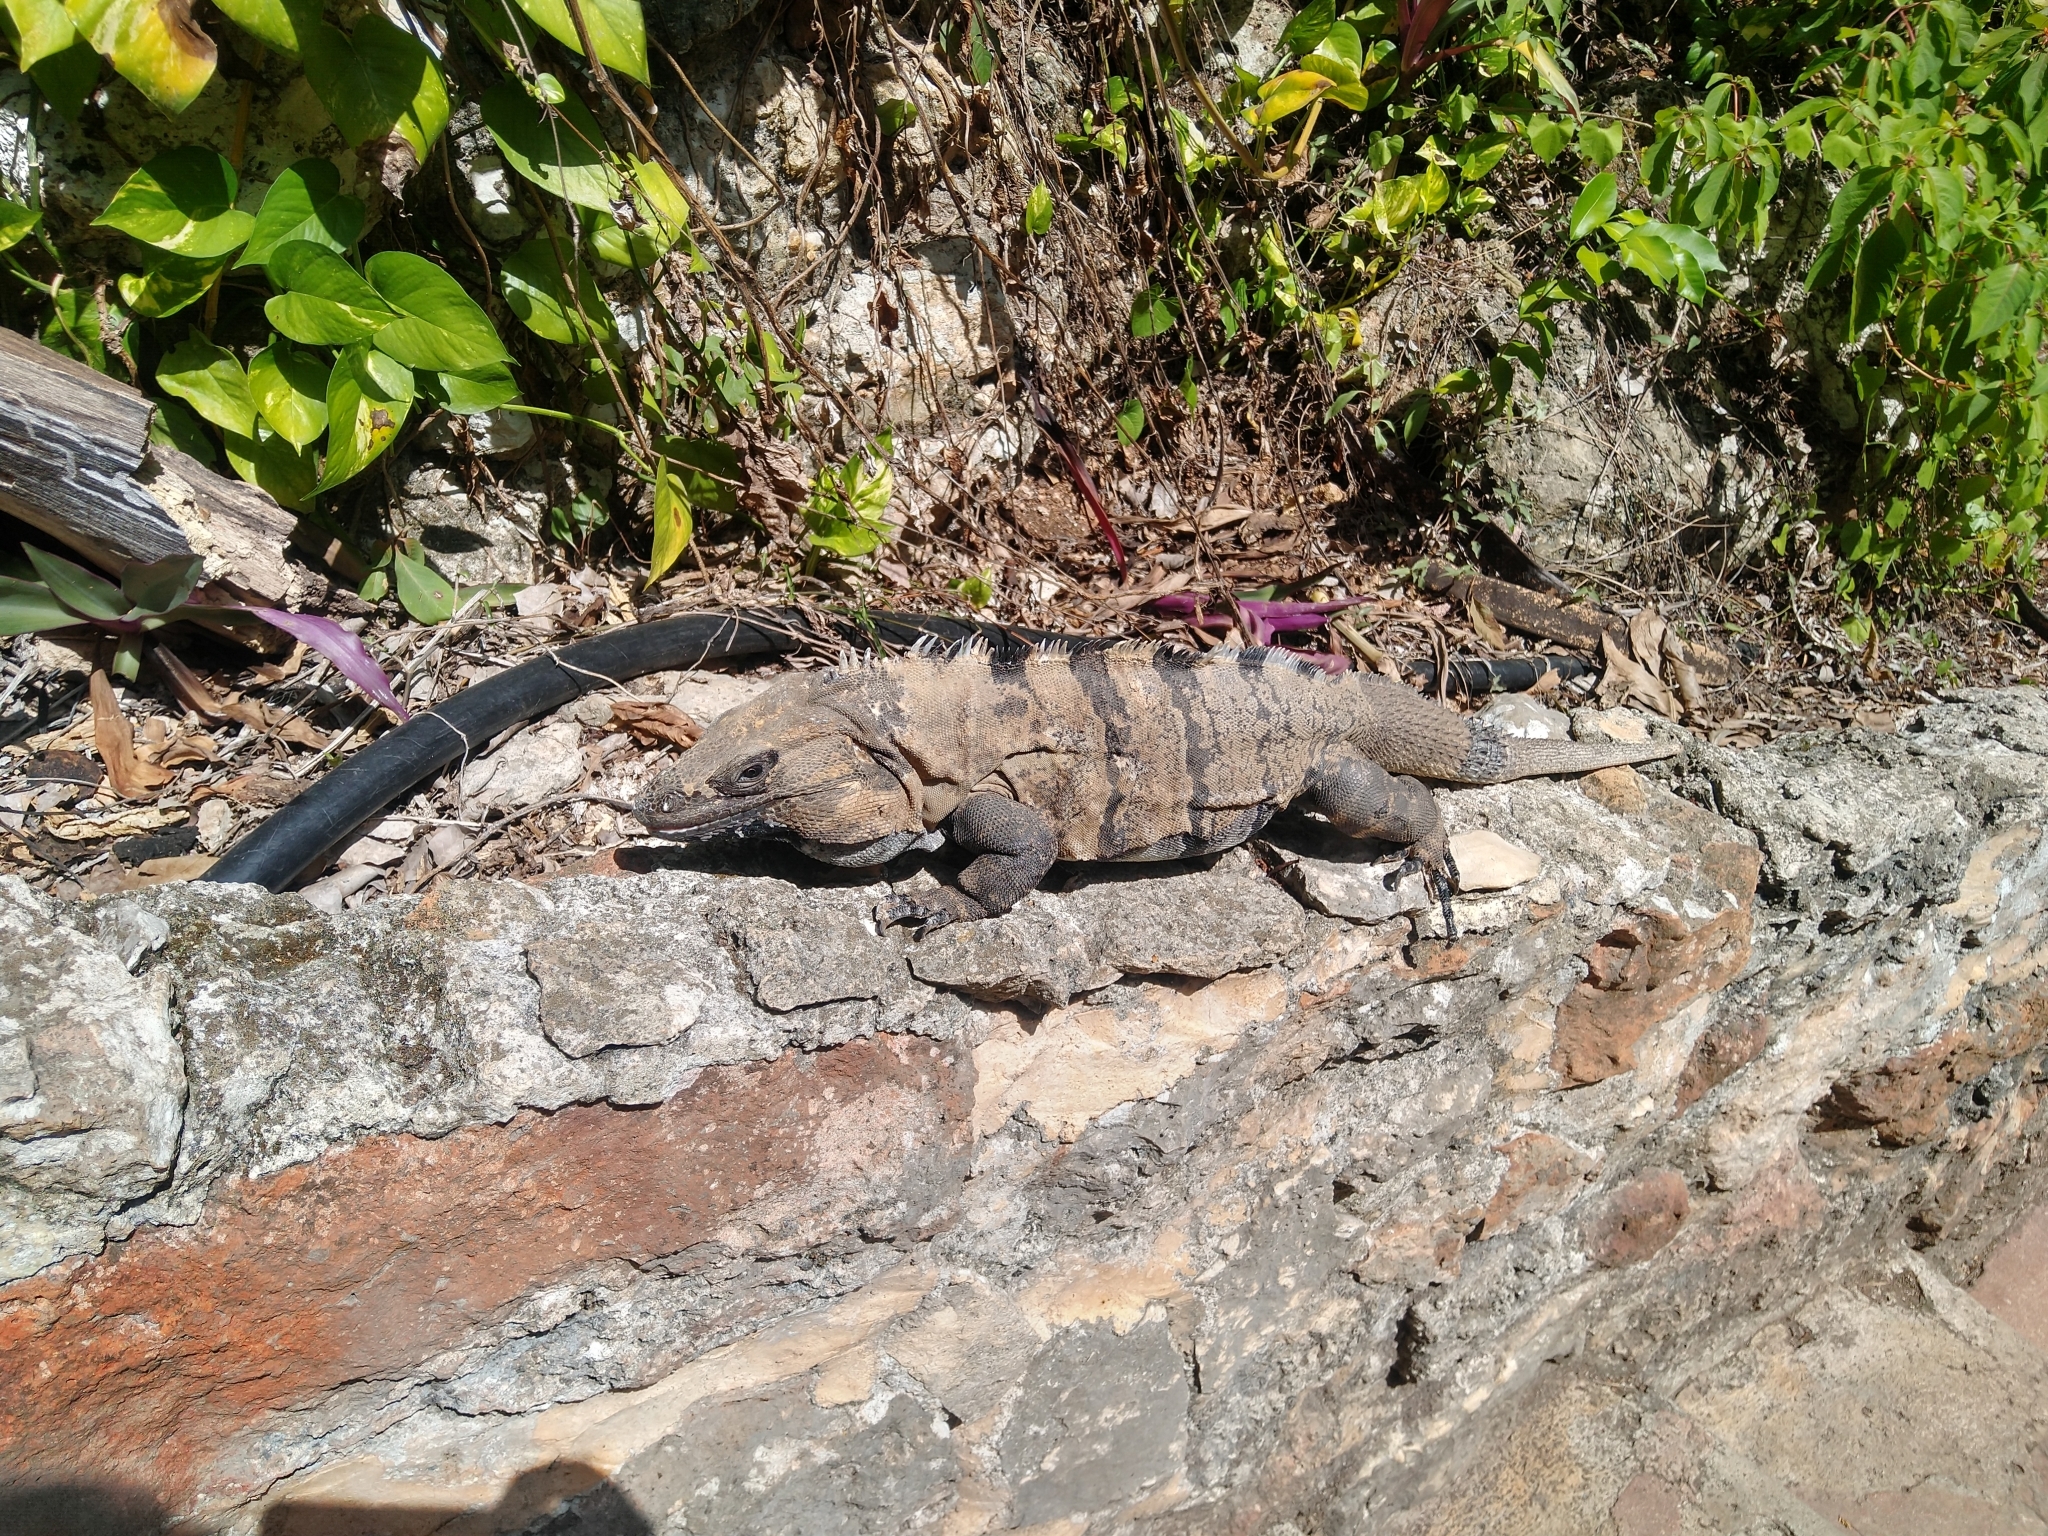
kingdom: Animalia
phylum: Chordata
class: Squamata
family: Iguanidae
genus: Ctenosaura
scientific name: Ctenosaura similis
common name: Black spiny-tailed iguana
